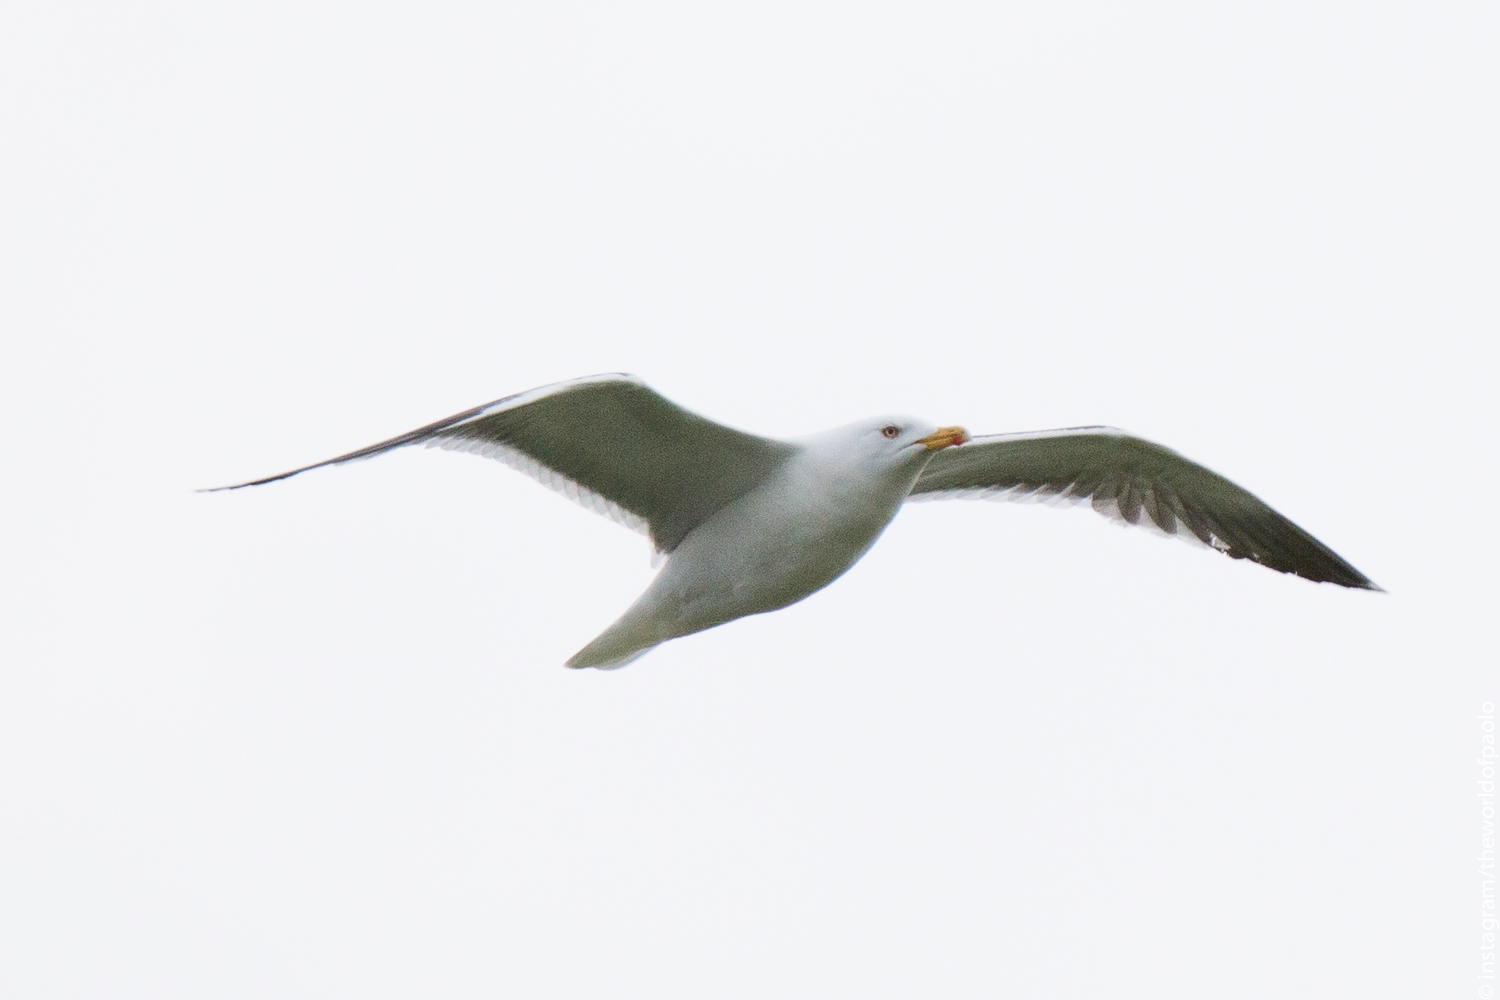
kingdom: Animalia
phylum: Chordata
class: Aves
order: Charadriiformes
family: Laridae
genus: Larus
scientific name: Larus fuscus
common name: Lesser black-backed gull
